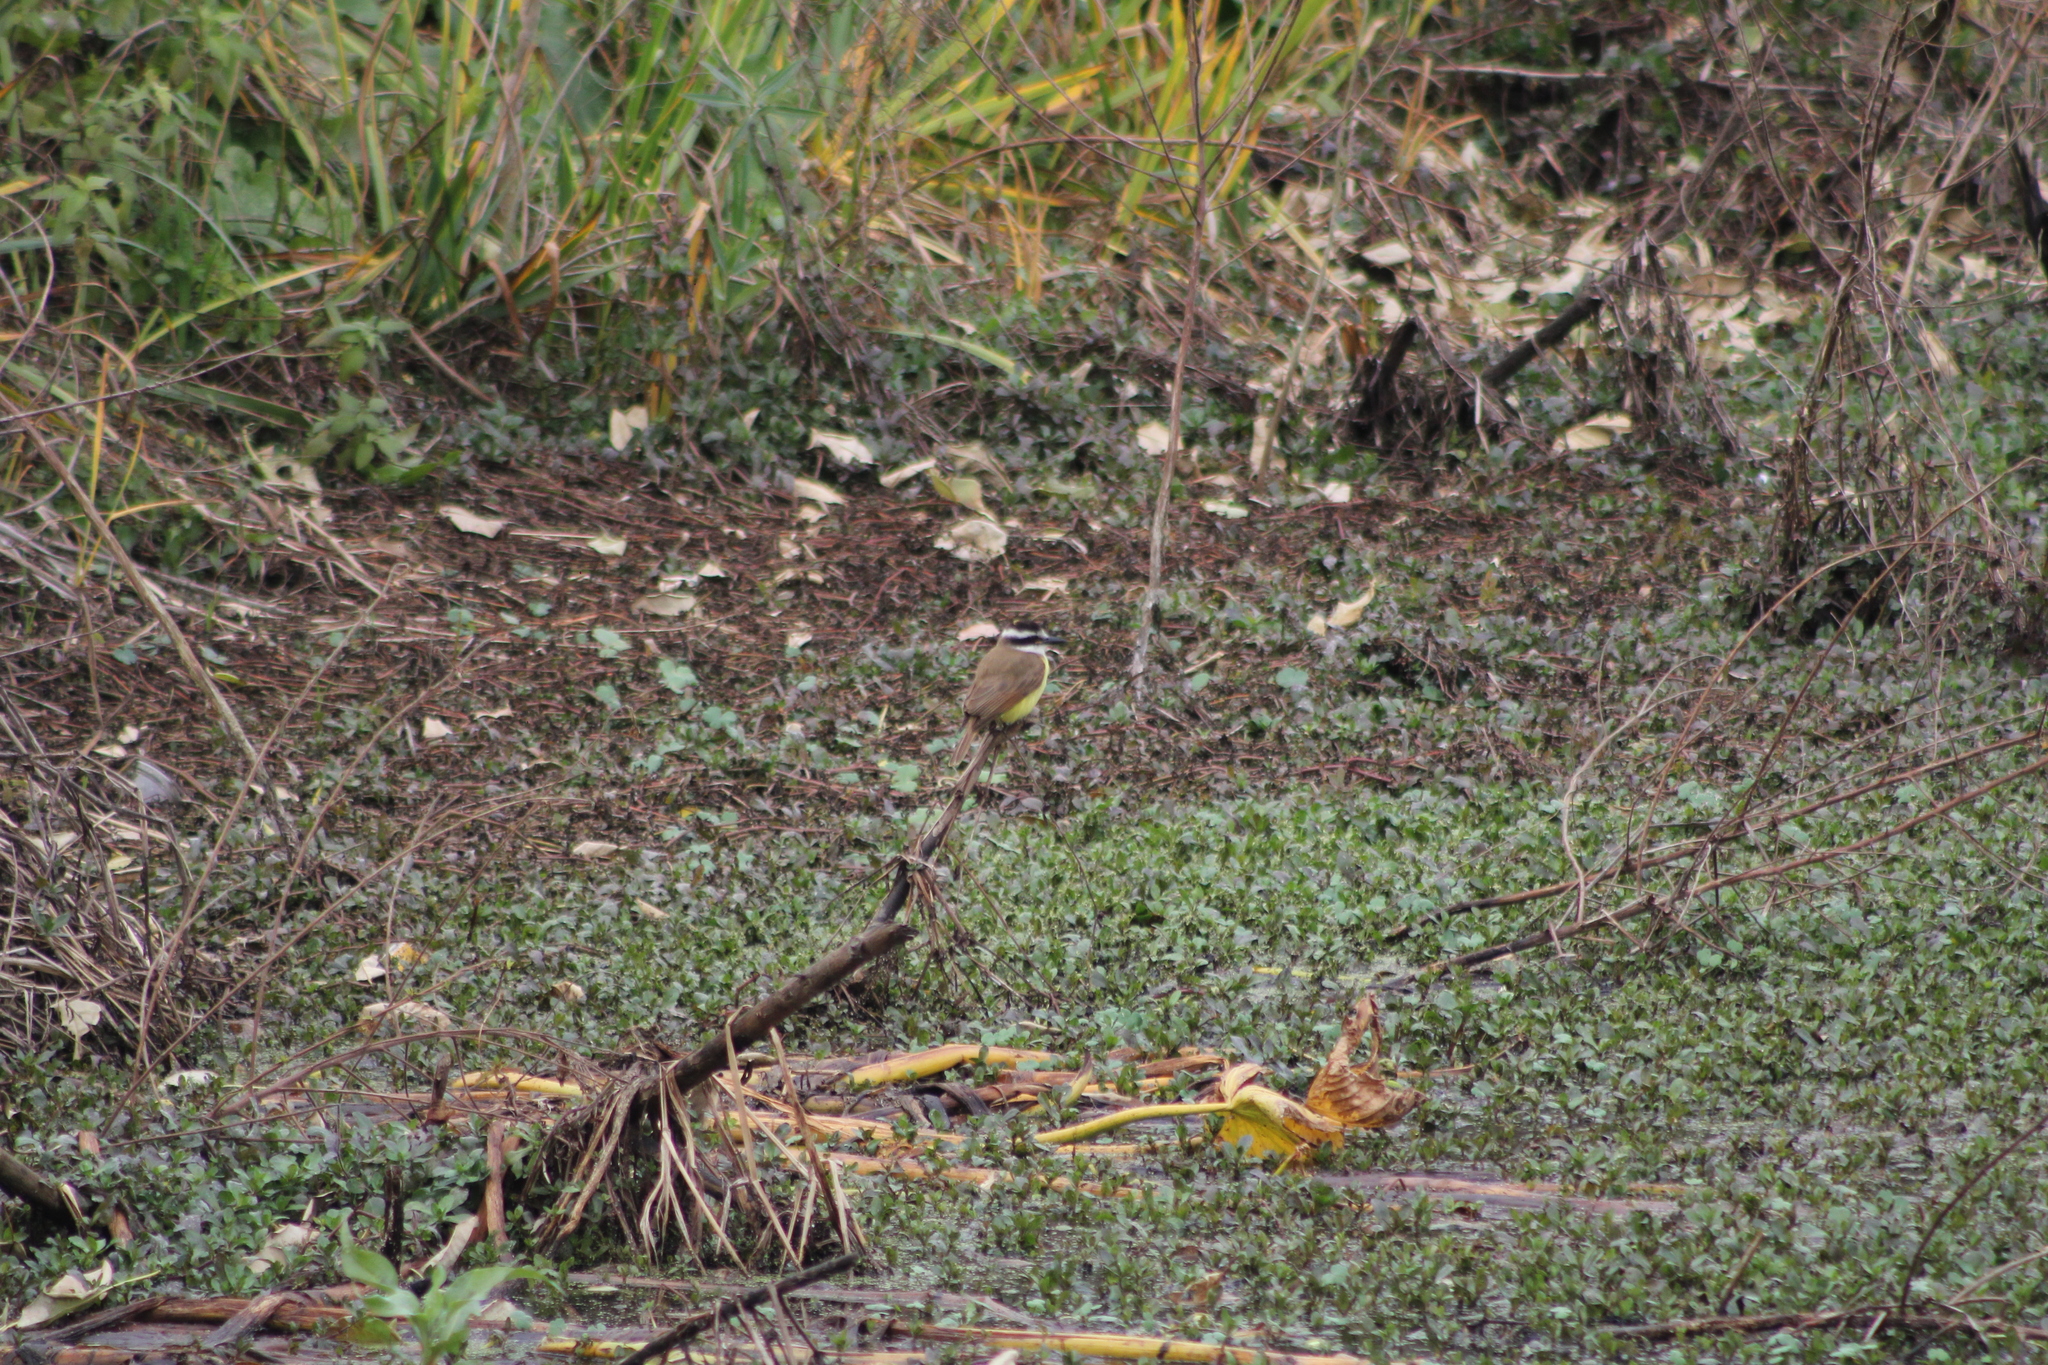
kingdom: Animalia
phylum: Chordata
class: Aves
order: Passeriformes
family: Tyrannidae
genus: Pitangus
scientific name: Pitangus sulphuratus
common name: Great kiskadee
